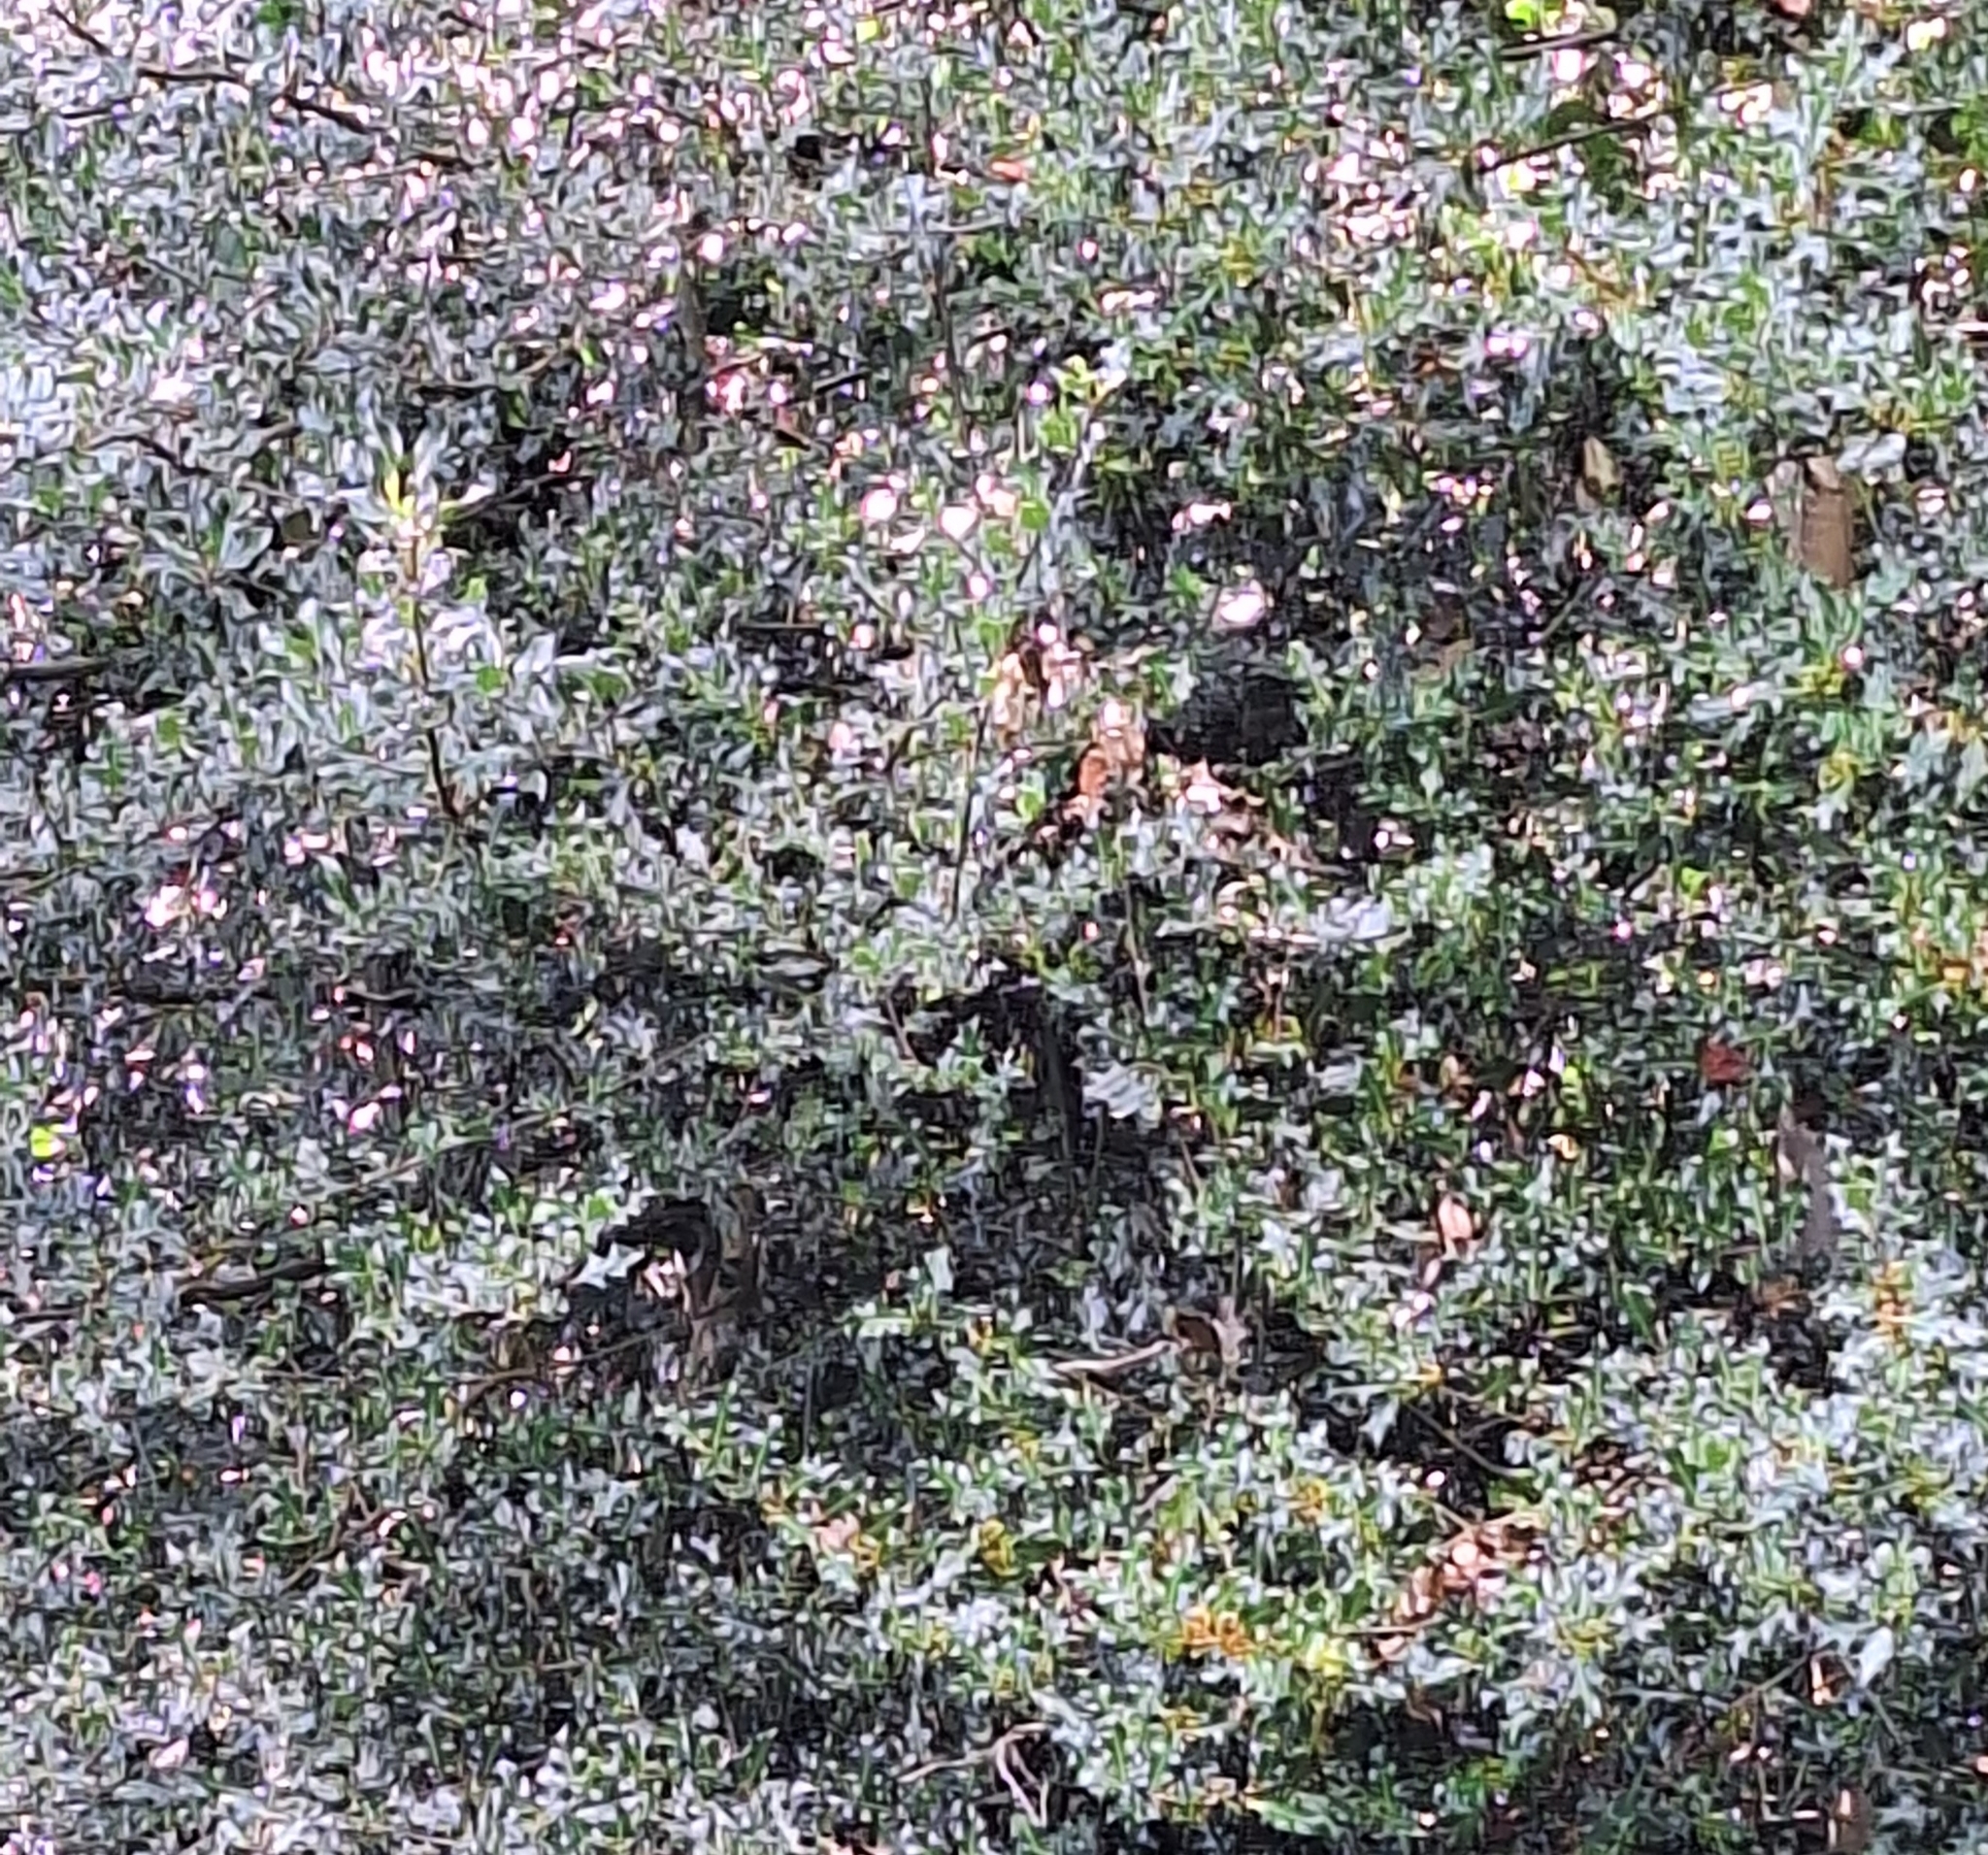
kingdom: Plantae
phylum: Tracheophyta
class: Magnoliopsida
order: Aquifoliales
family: Aquifoliaceae
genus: Ilex
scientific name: Ilex aquifolium
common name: English holly
